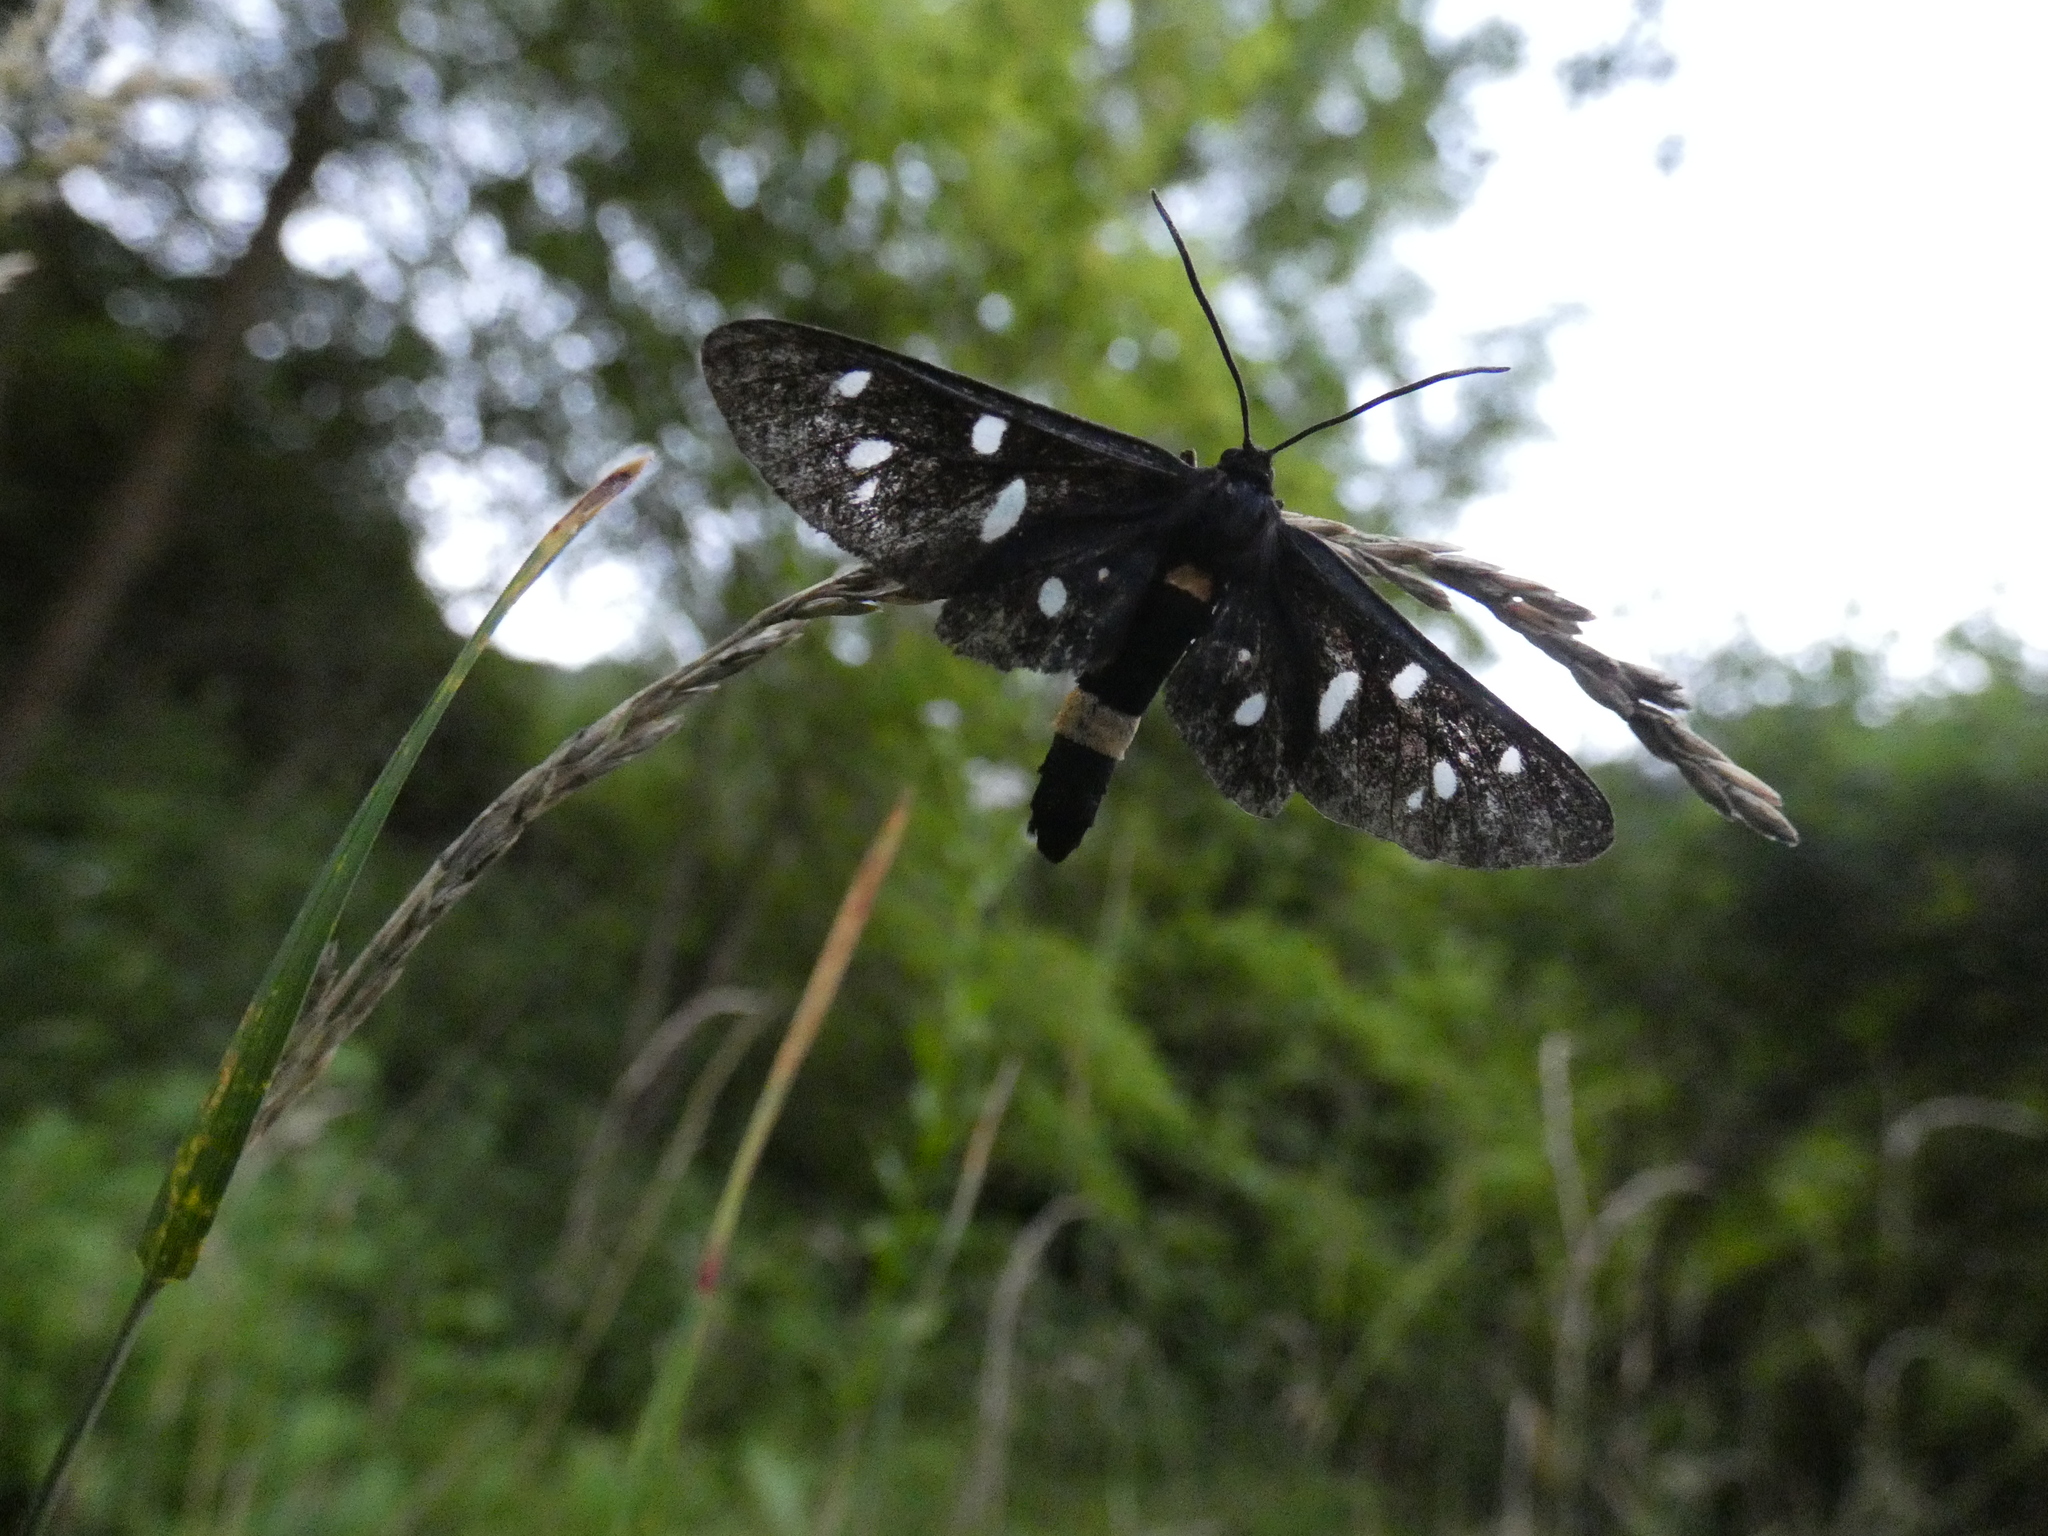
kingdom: Animalia
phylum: Arthropoda
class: Insecta
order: Lepidoptera
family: Erebidae
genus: Amata
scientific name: Amata phegea
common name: Nine-spotted
